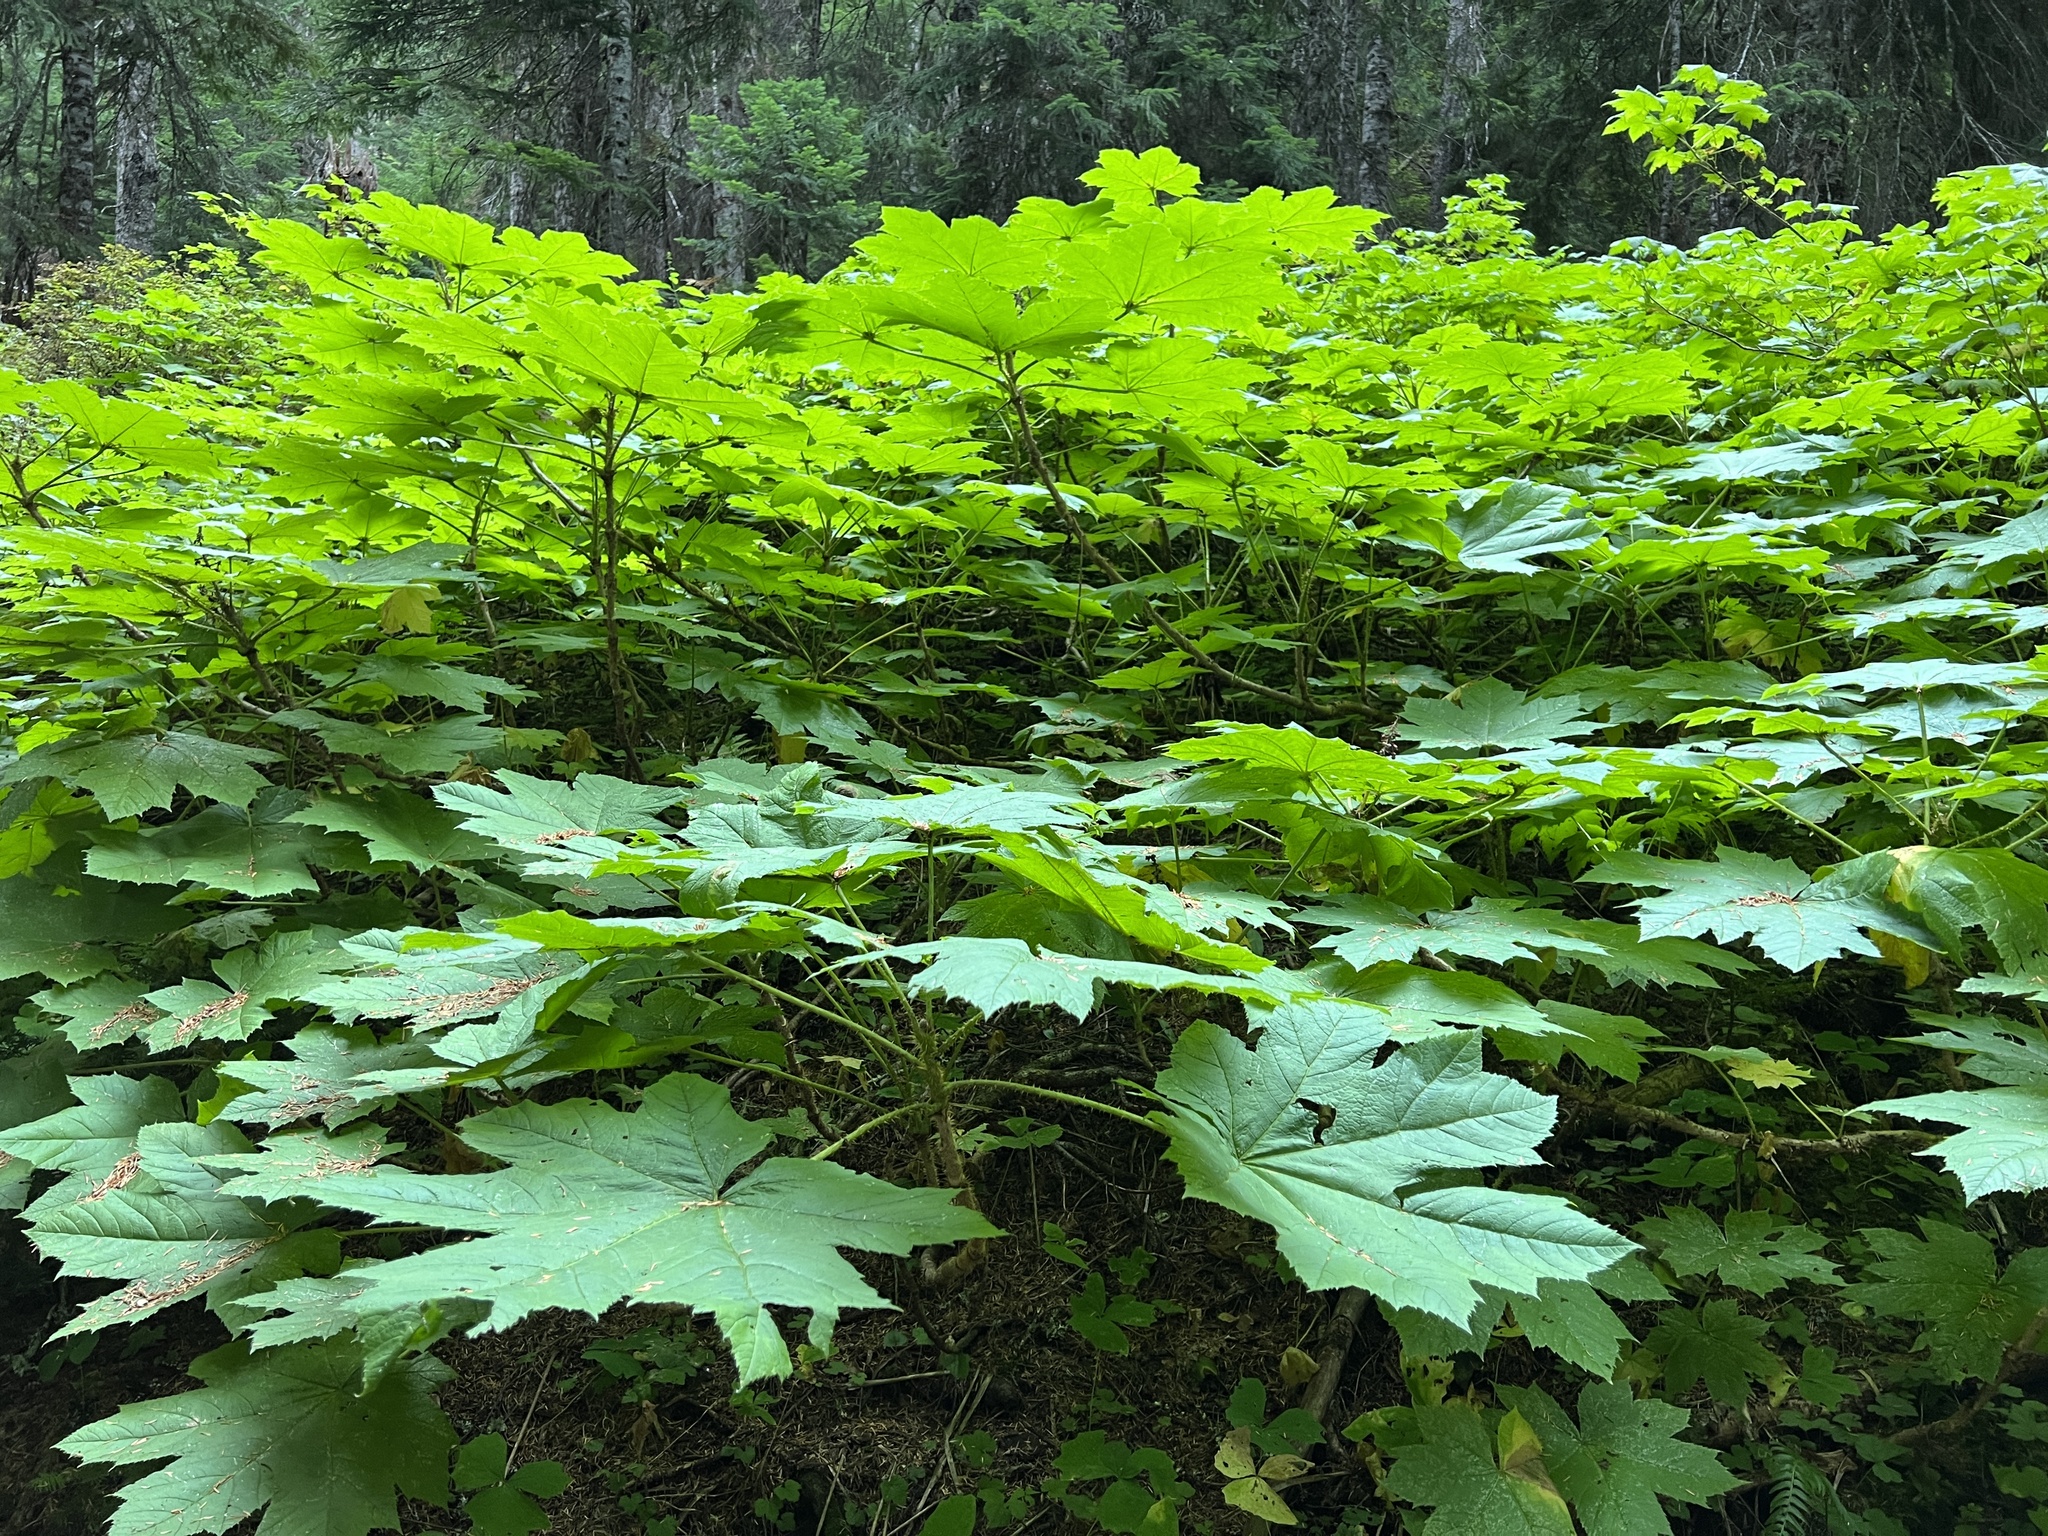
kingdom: Plantae
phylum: Tracheophyta
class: Magnoliopsida
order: Apiales
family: Araliaceae
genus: Oplopanax
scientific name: Oplopanax horridus
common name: Devil's walking-stick
